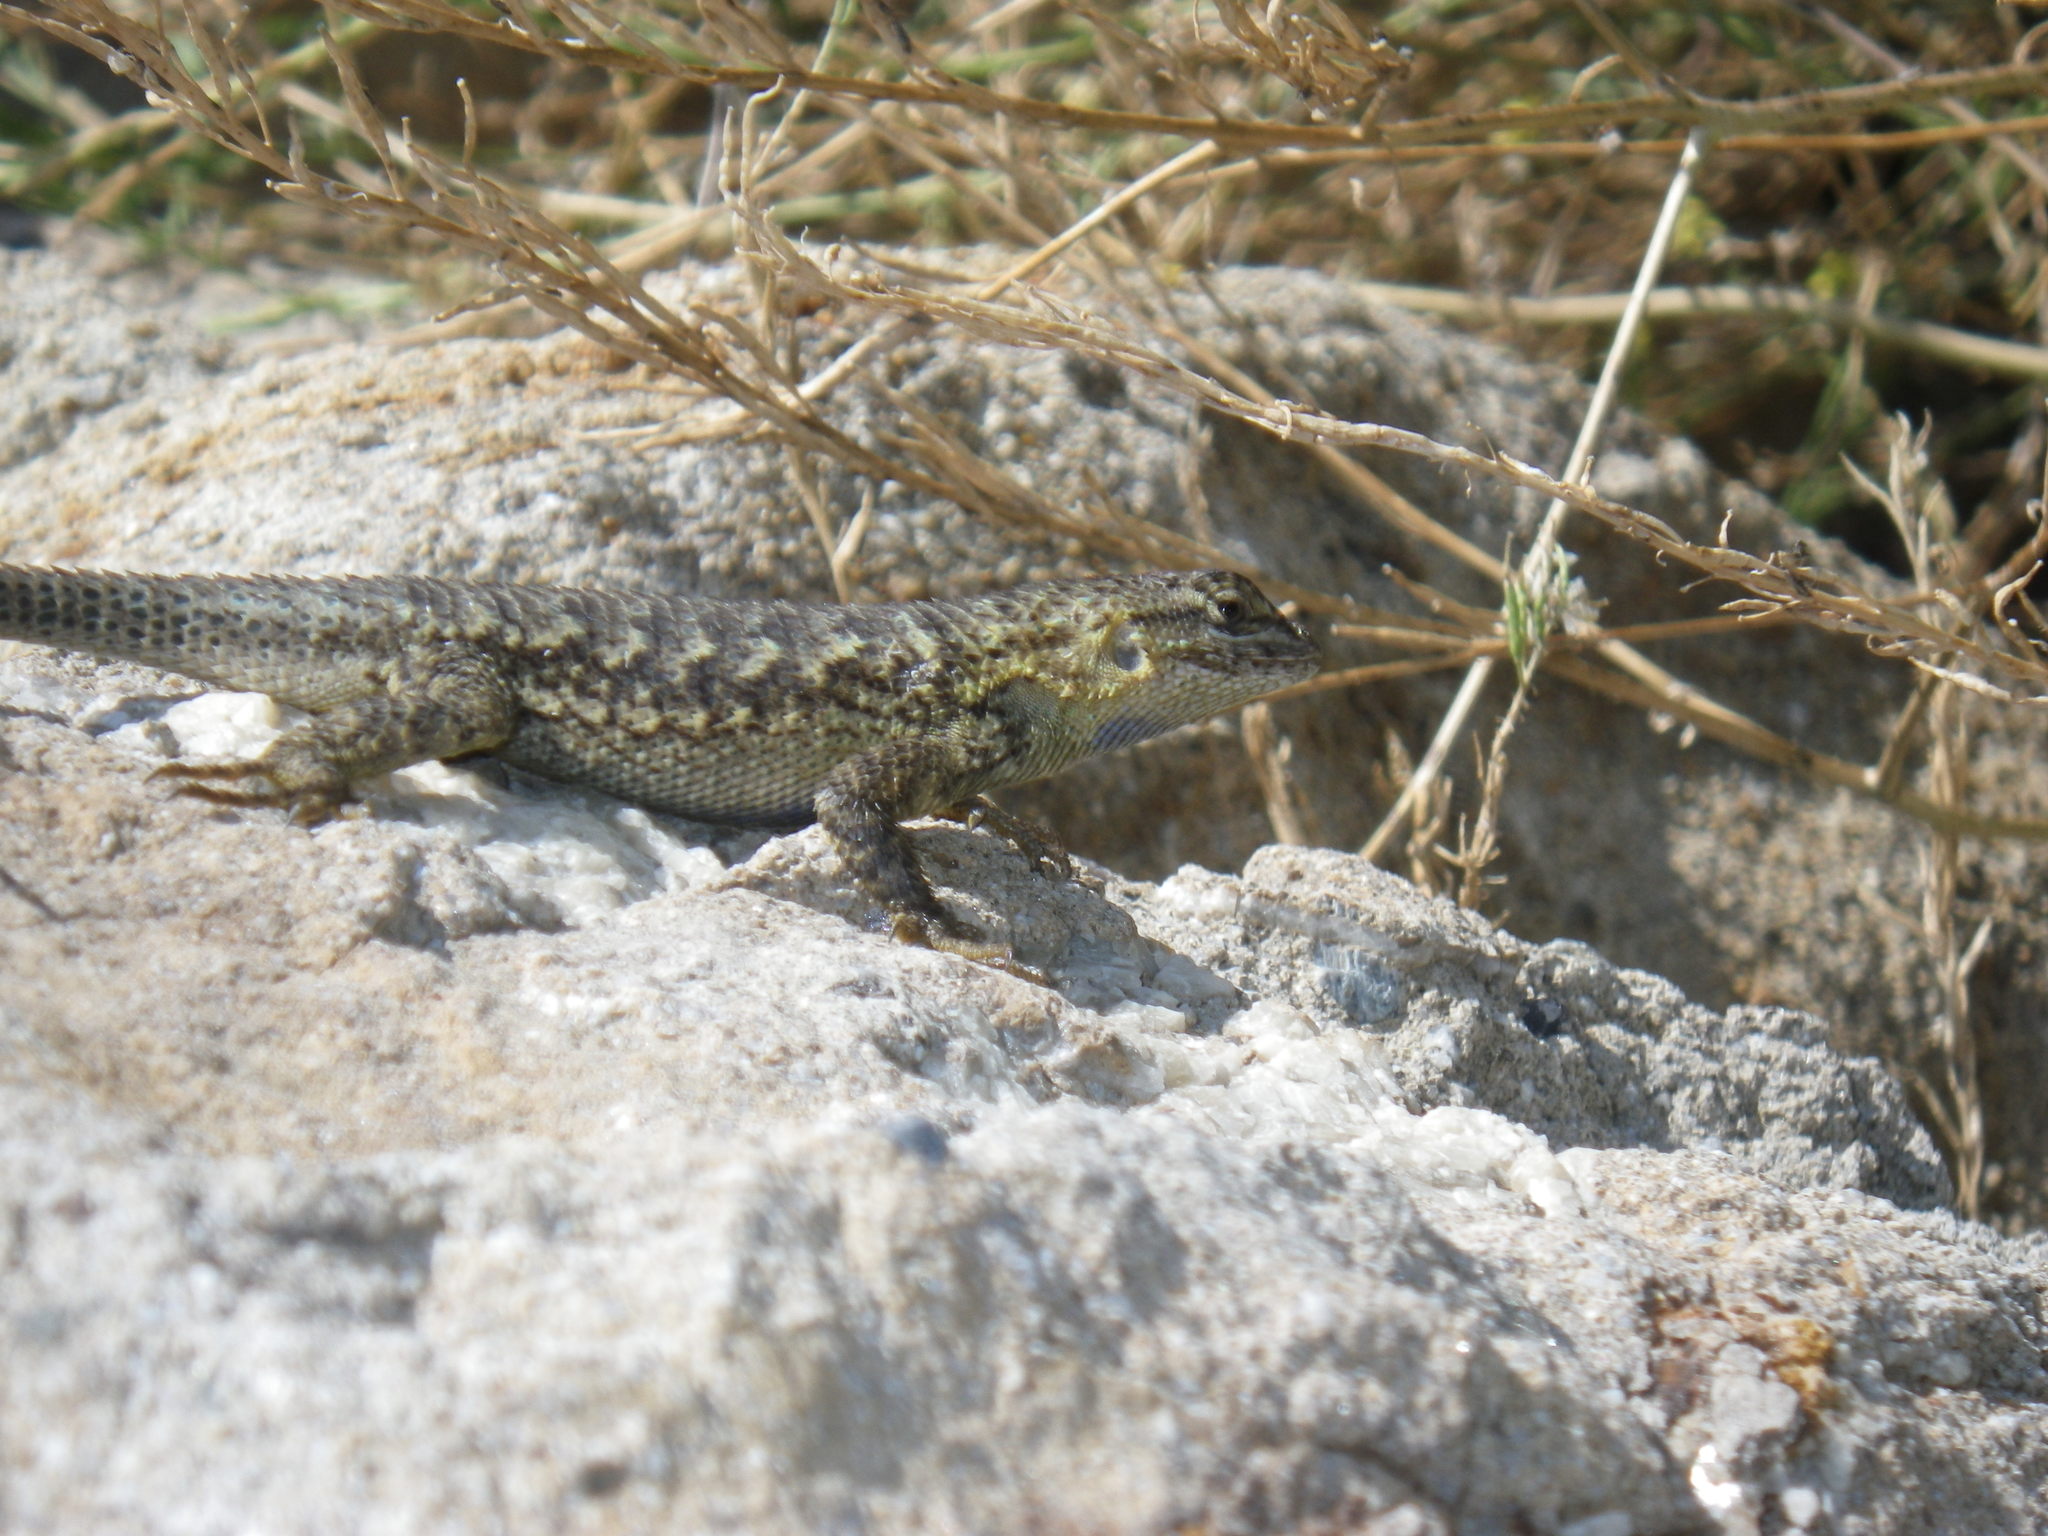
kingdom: Animalia
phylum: Chordata
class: Squamata
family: Phrynosomatidae
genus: Sceloporus
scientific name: Sceloporus occidentalis
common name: Western fence lizard
